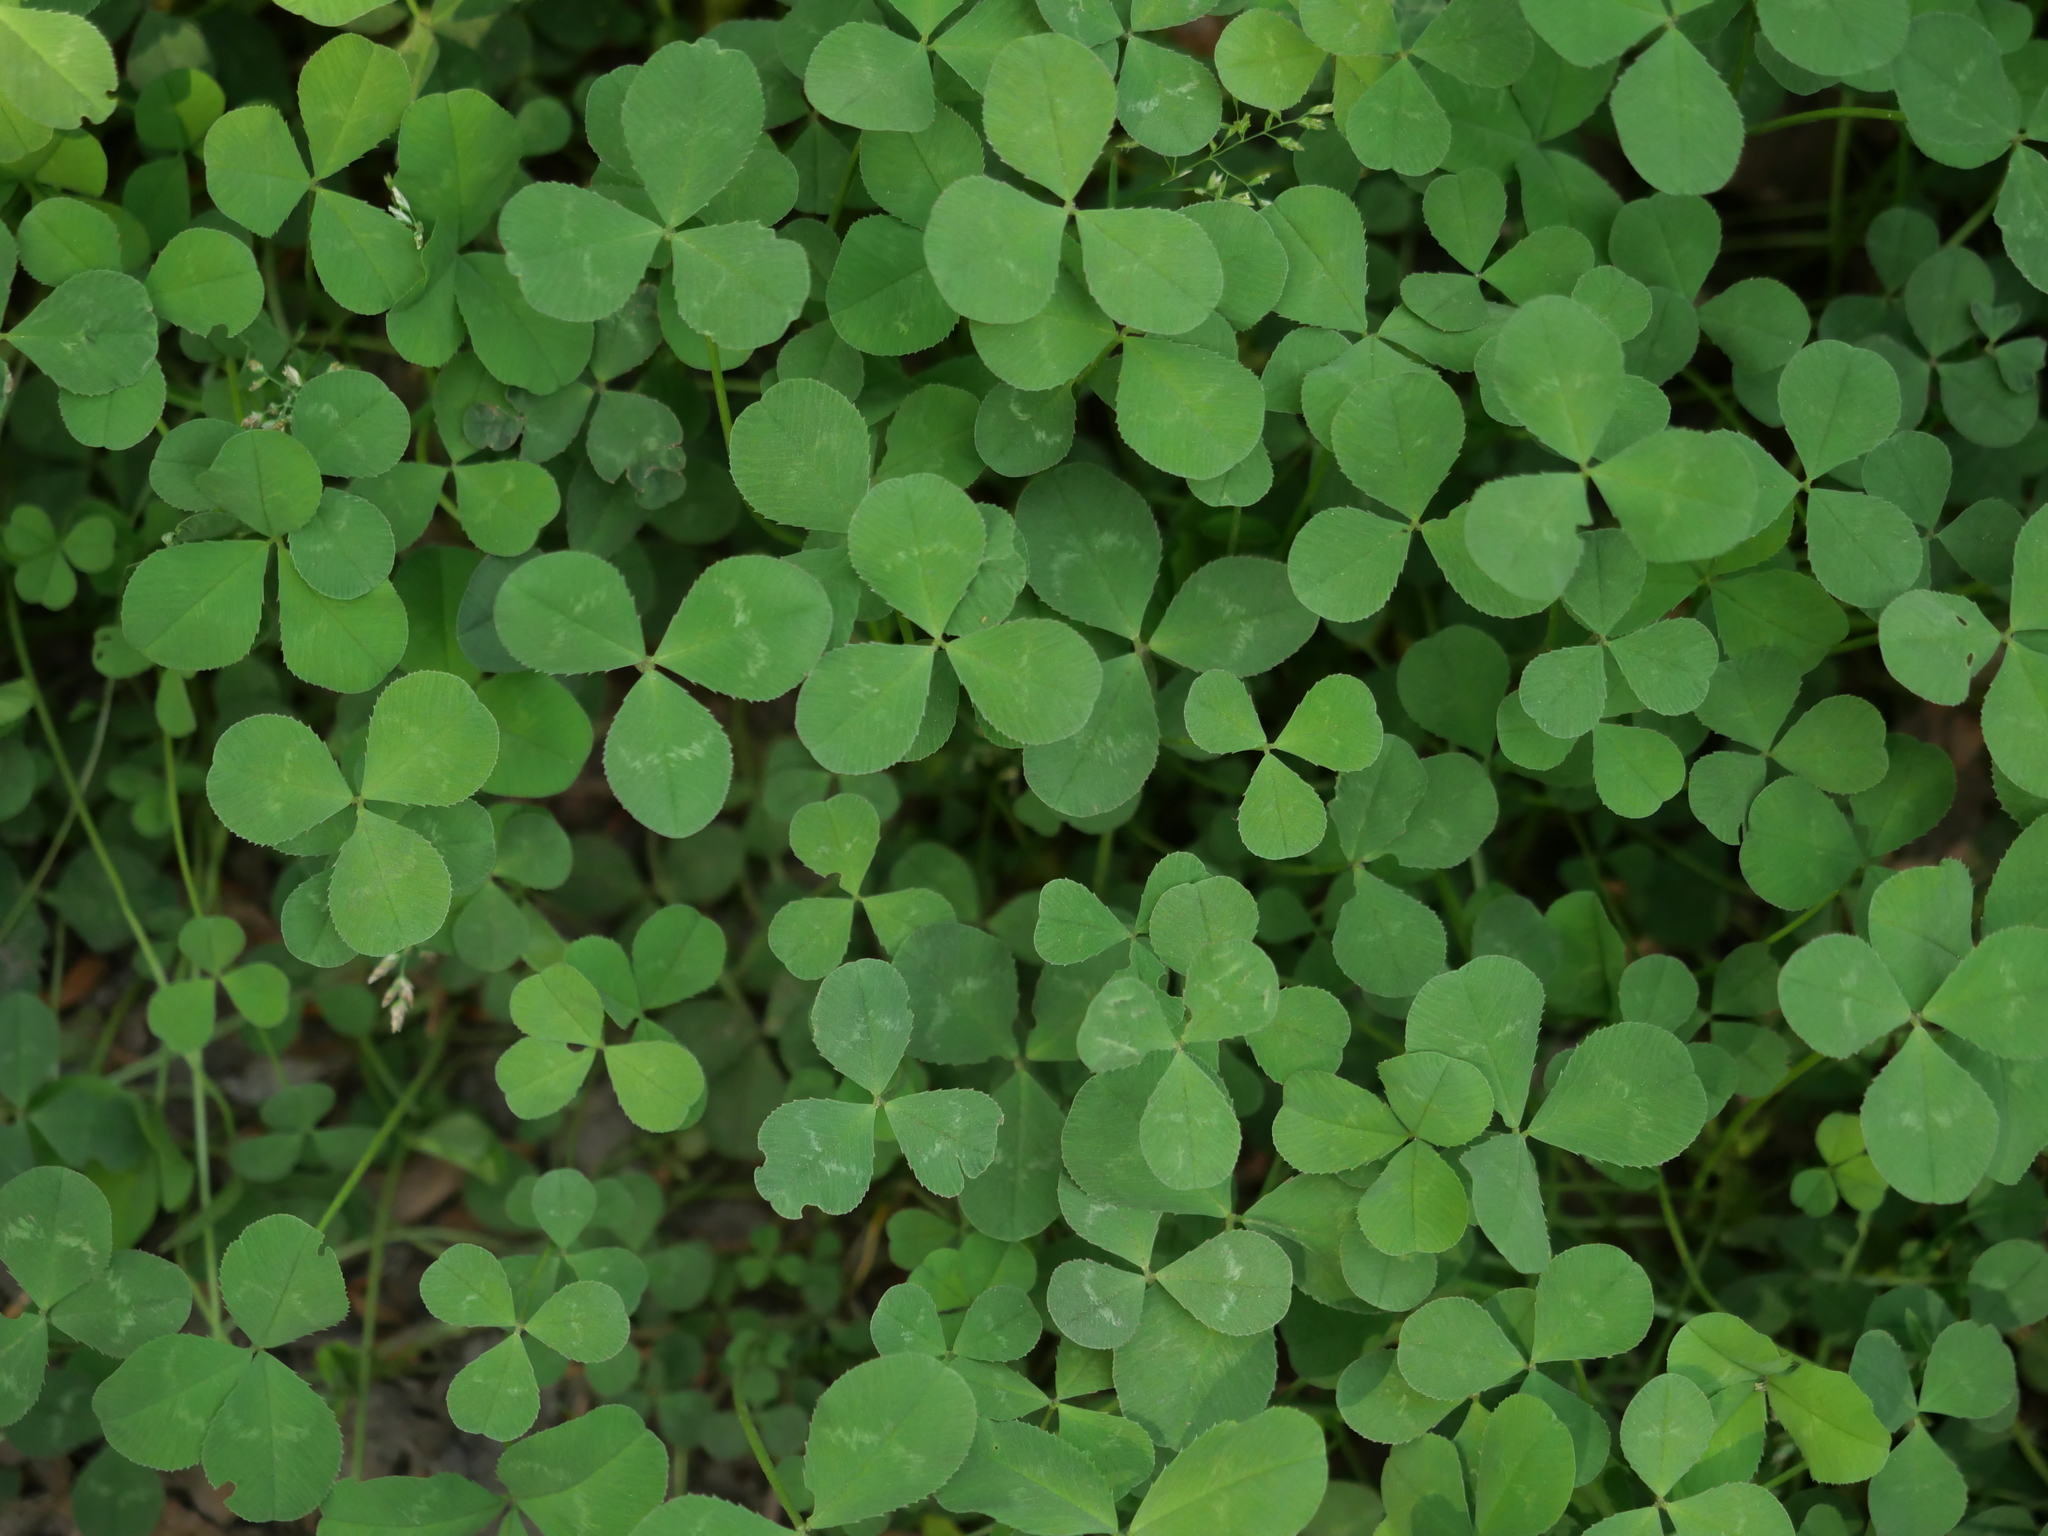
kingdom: Plantae
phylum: Tracheophyta
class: Magnoliopsida
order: Fabales
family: Fabaceae
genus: Trifolium
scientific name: Trifolium repens
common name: White clover
